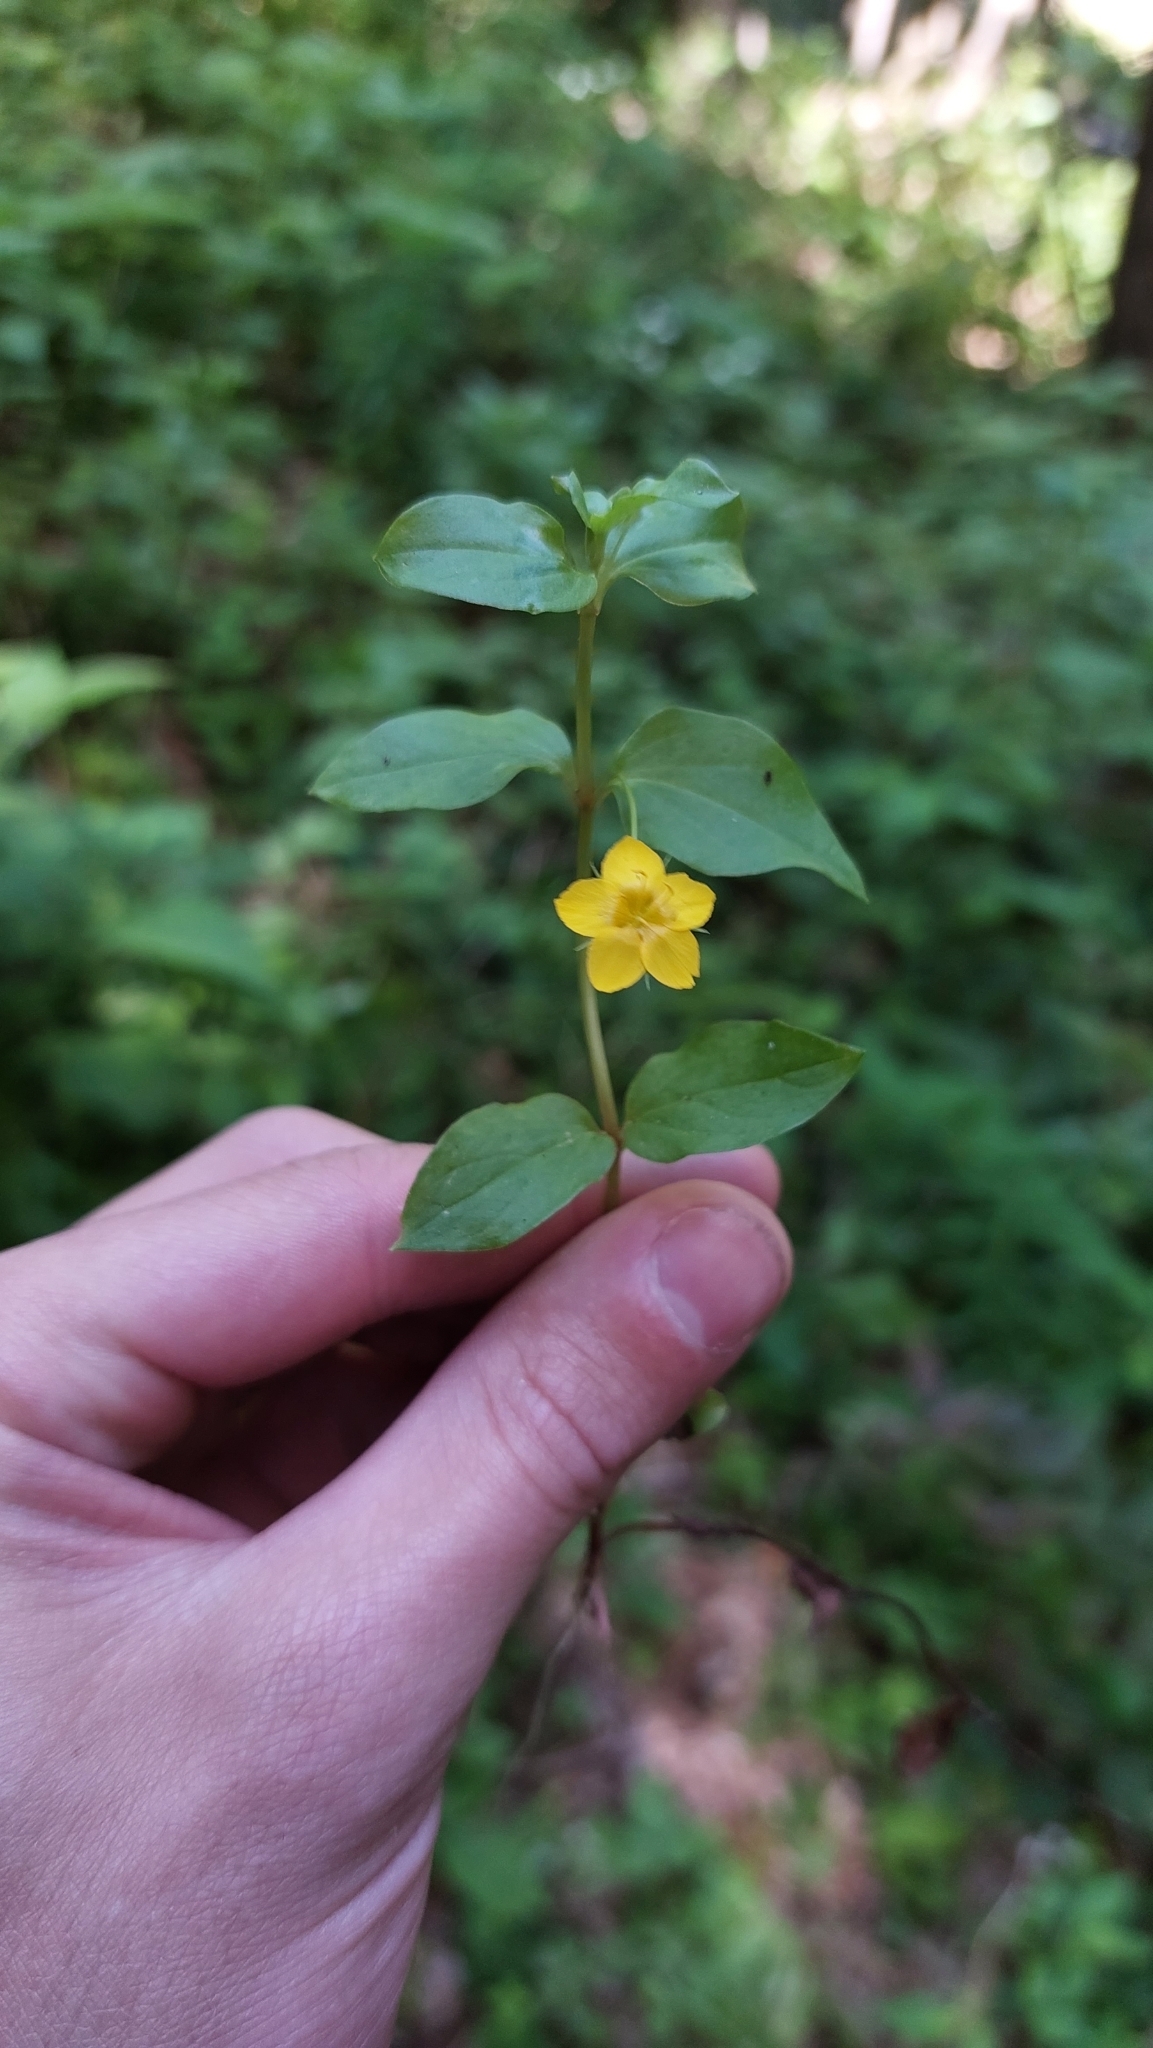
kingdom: Plantae
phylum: Tracheophyta
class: Magnoliopsida
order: Ericales
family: Primulaceae
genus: Lysimachia
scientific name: Lysimachia nemorum
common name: Yellow pimpernel
